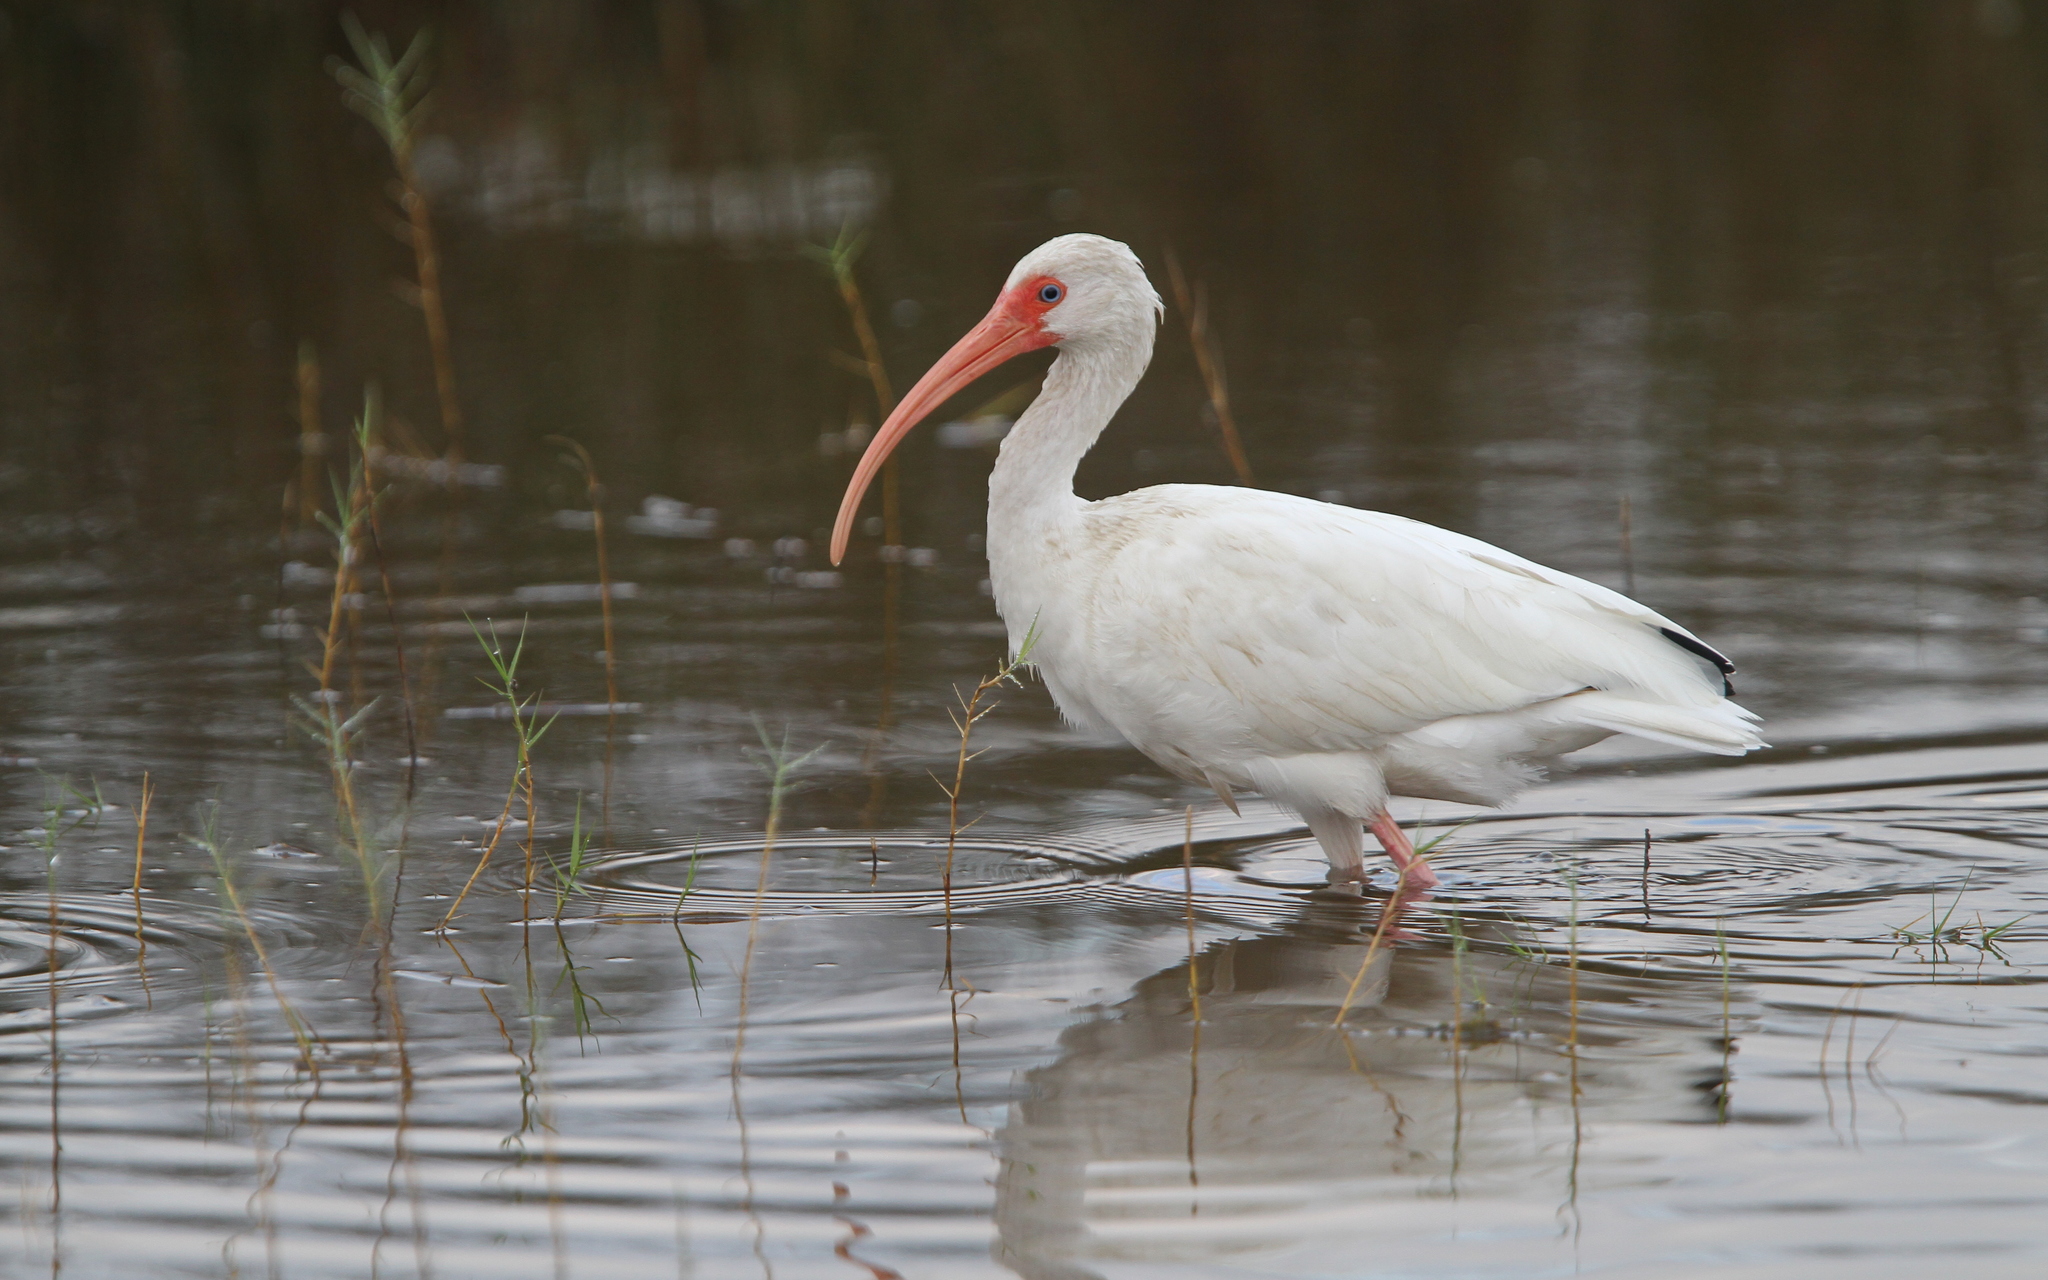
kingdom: Animalia
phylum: Chordata
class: Aves
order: Pelecaniformes
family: Threskiornithidae
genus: Eudocimus
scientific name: Eudocimus albus
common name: White ibis
